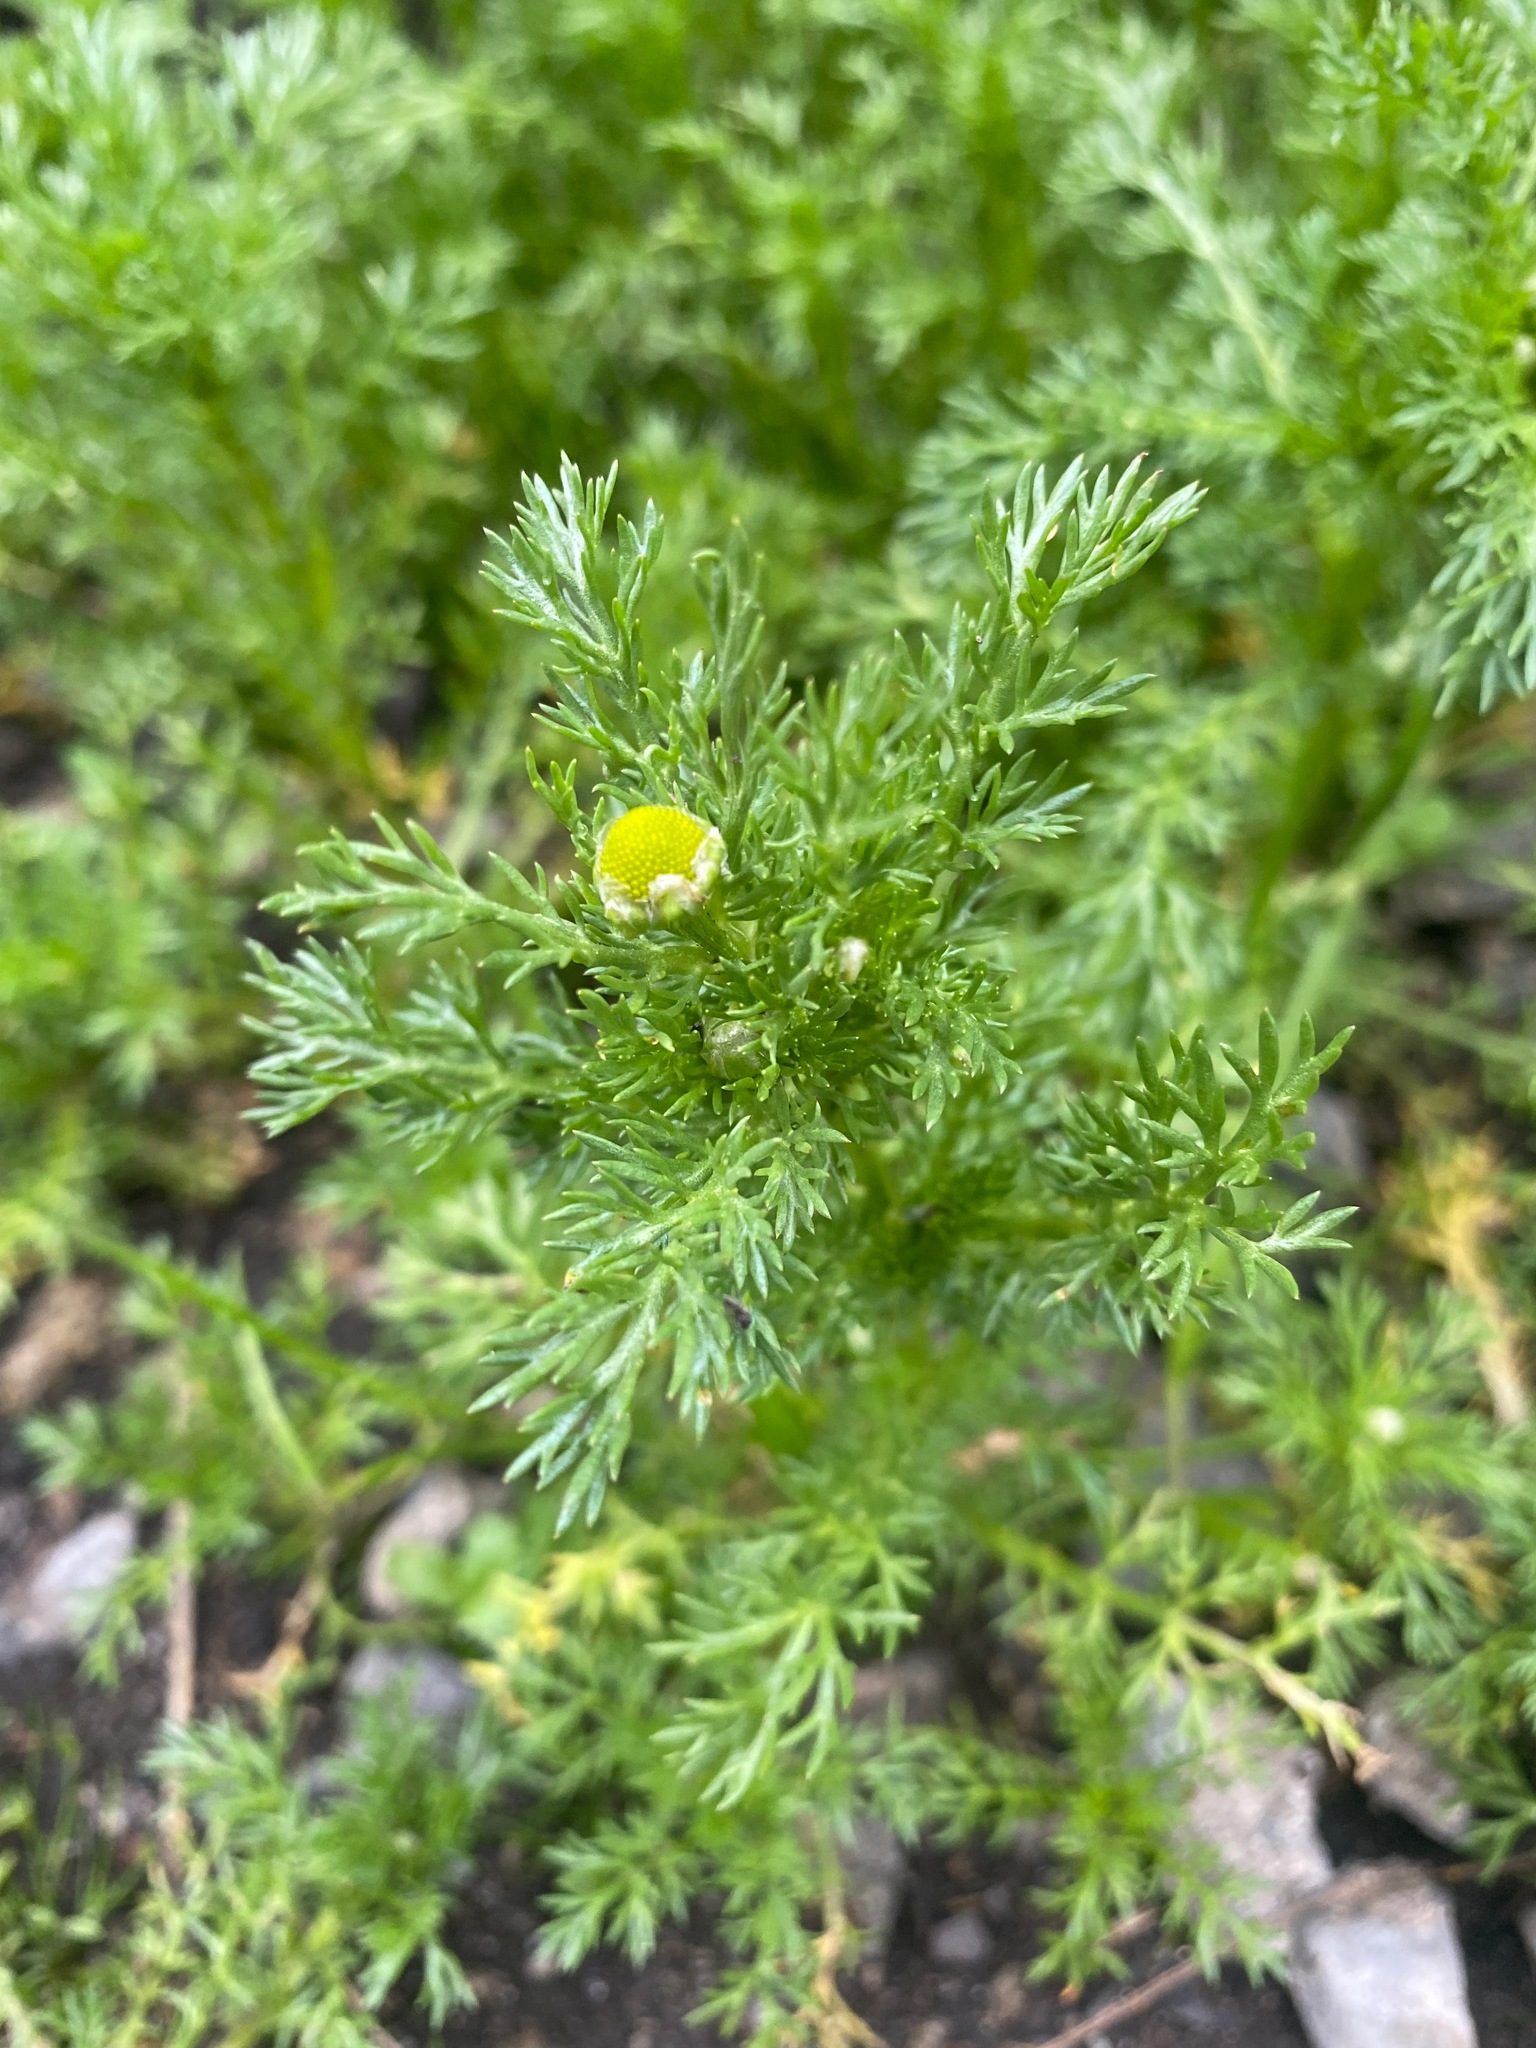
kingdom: Plantae
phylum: Tracheophyta
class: Magnoliopsida
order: Asterales
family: Asteraceae
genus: Matricaria
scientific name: Matricaria discoidea
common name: Disc mayweed
